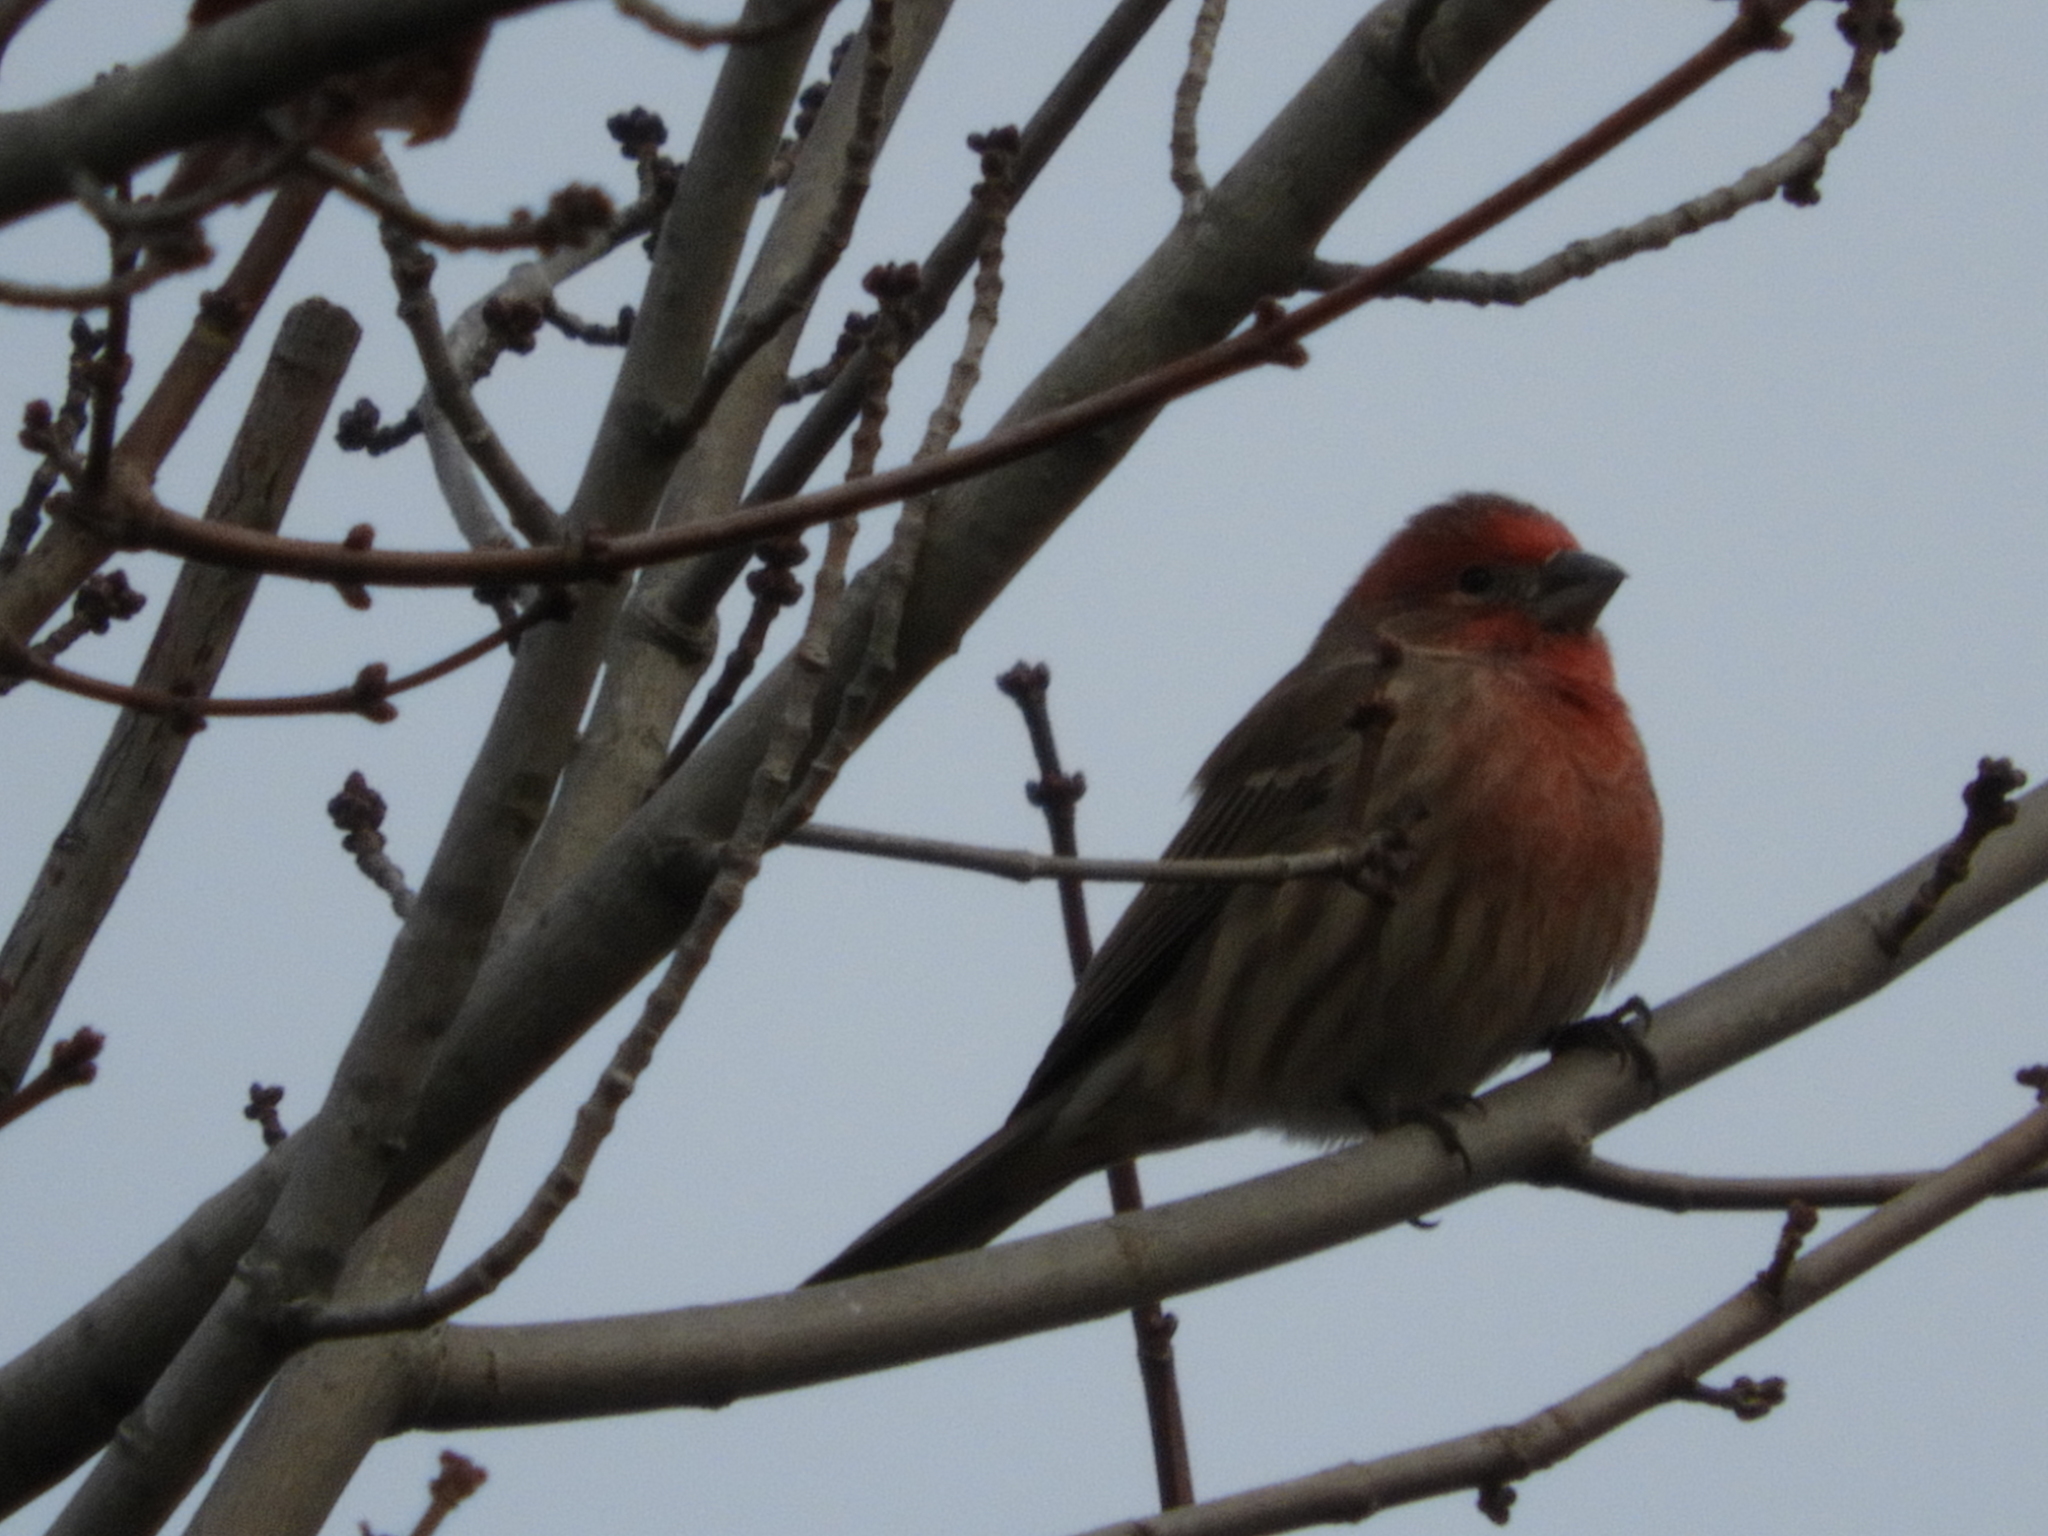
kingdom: Animalia
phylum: Chordata
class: Aves
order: Passeriformes
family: Fringillidae
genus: Haemorhous
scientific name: Haemorhous mexicanus
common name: House finch
